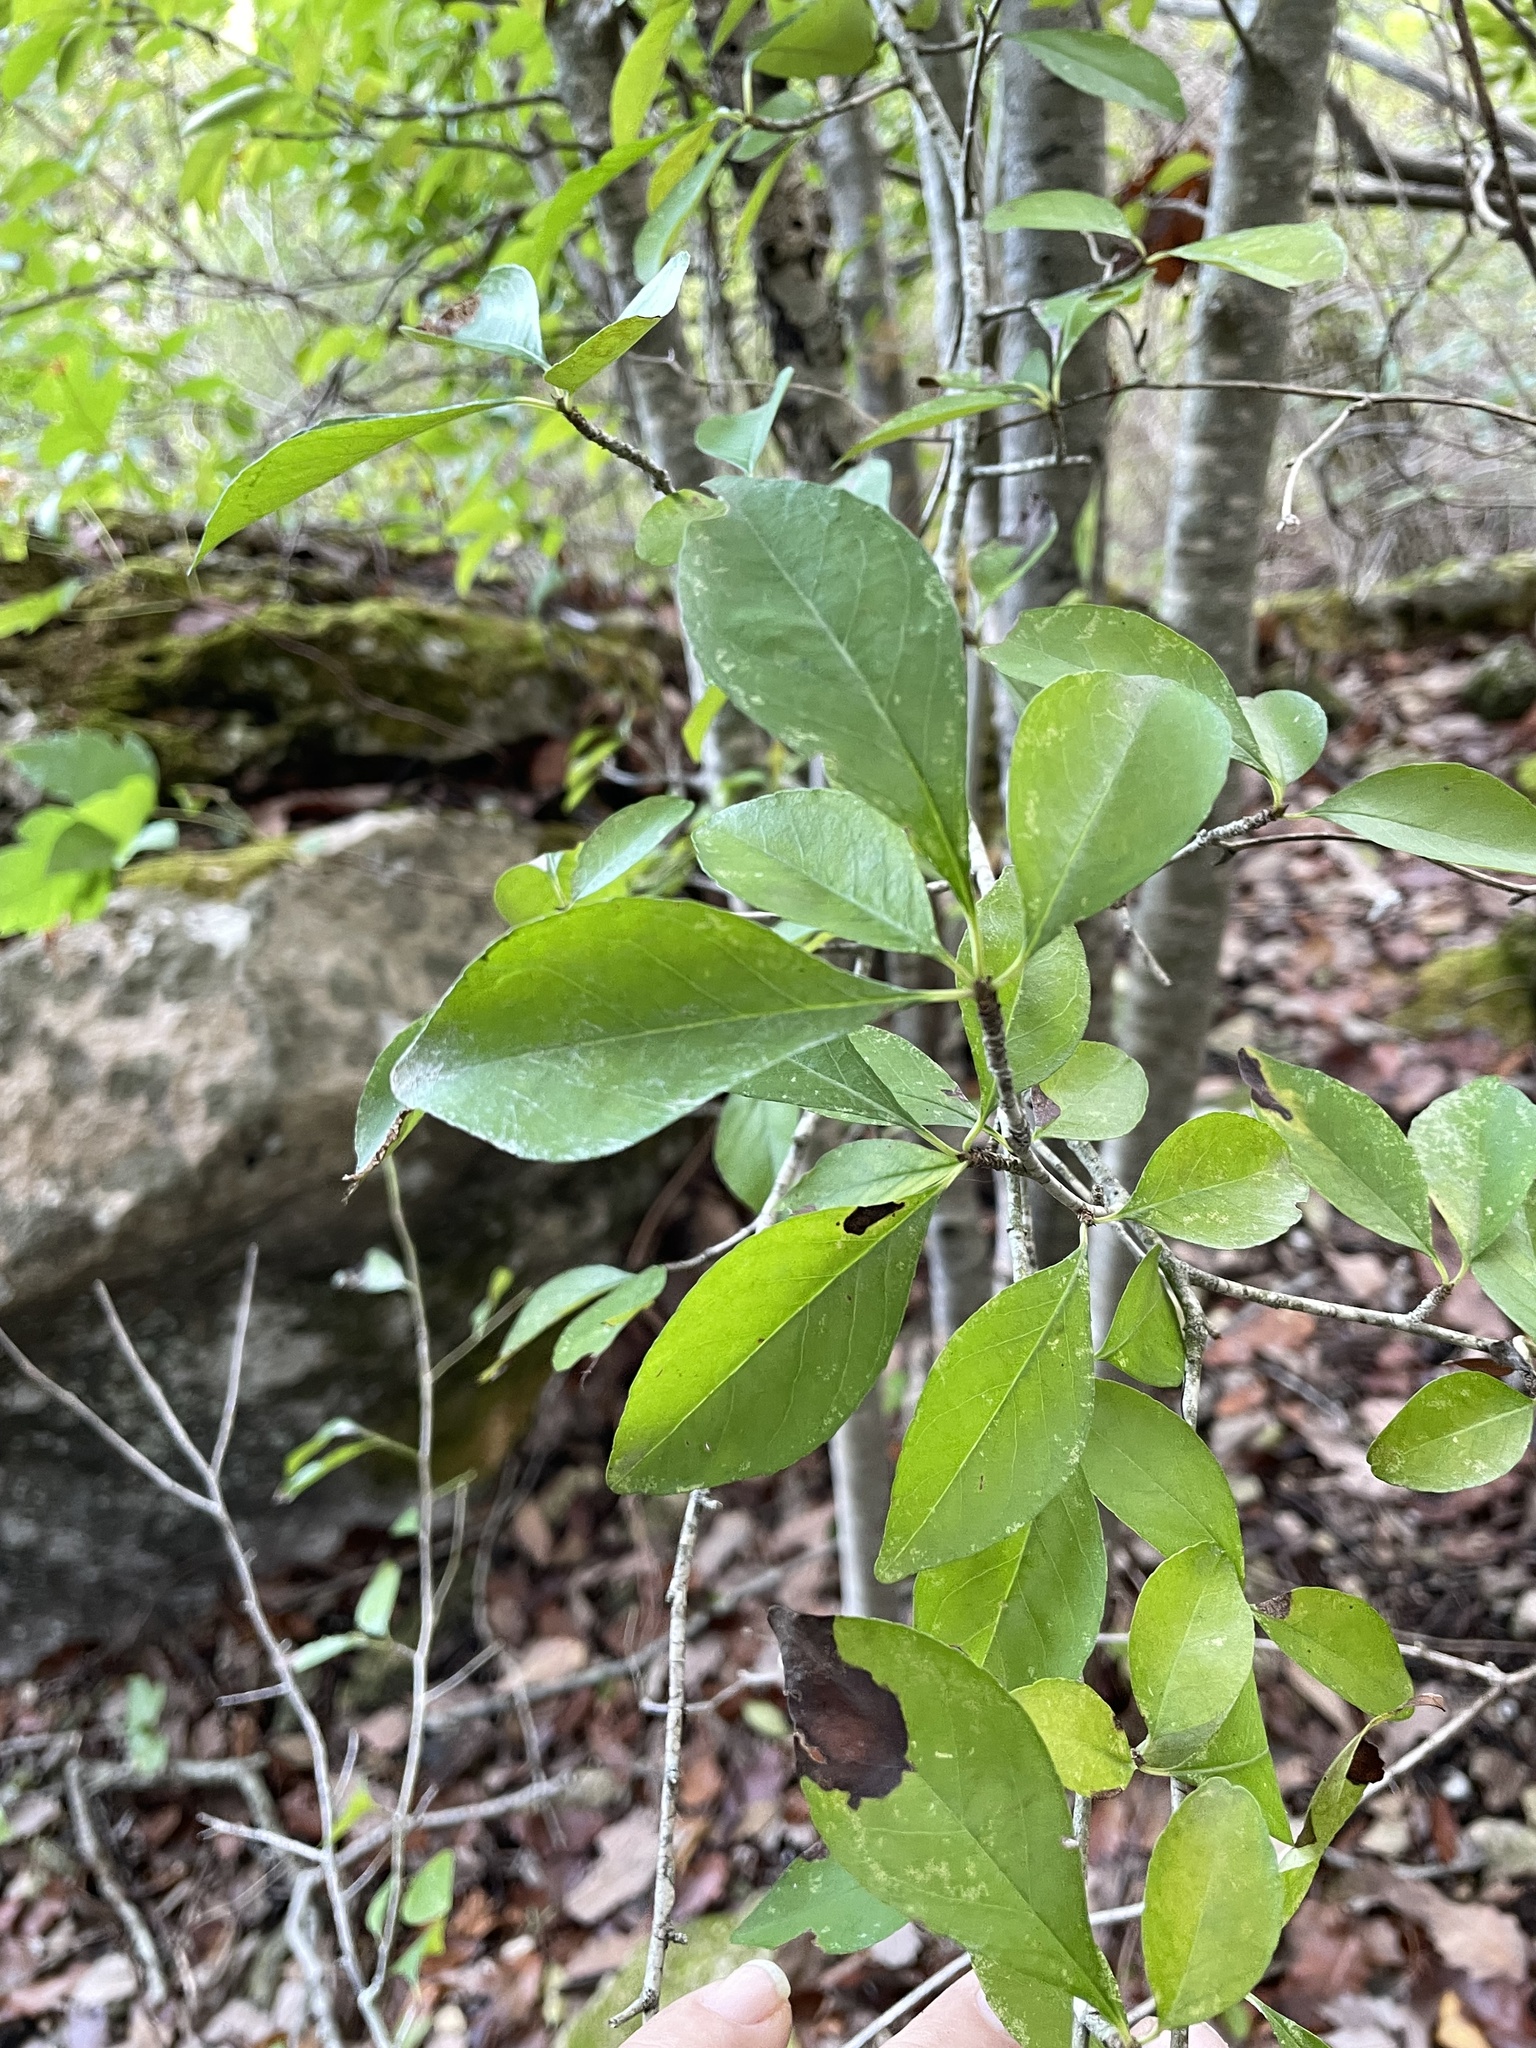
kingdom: Plantae
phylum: Tracheophyta
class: Magnoliopsida
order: Aquifoliales
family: Aquifoliaceae
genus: Ilex
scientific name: Ilex decidua
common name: Possum-haw
